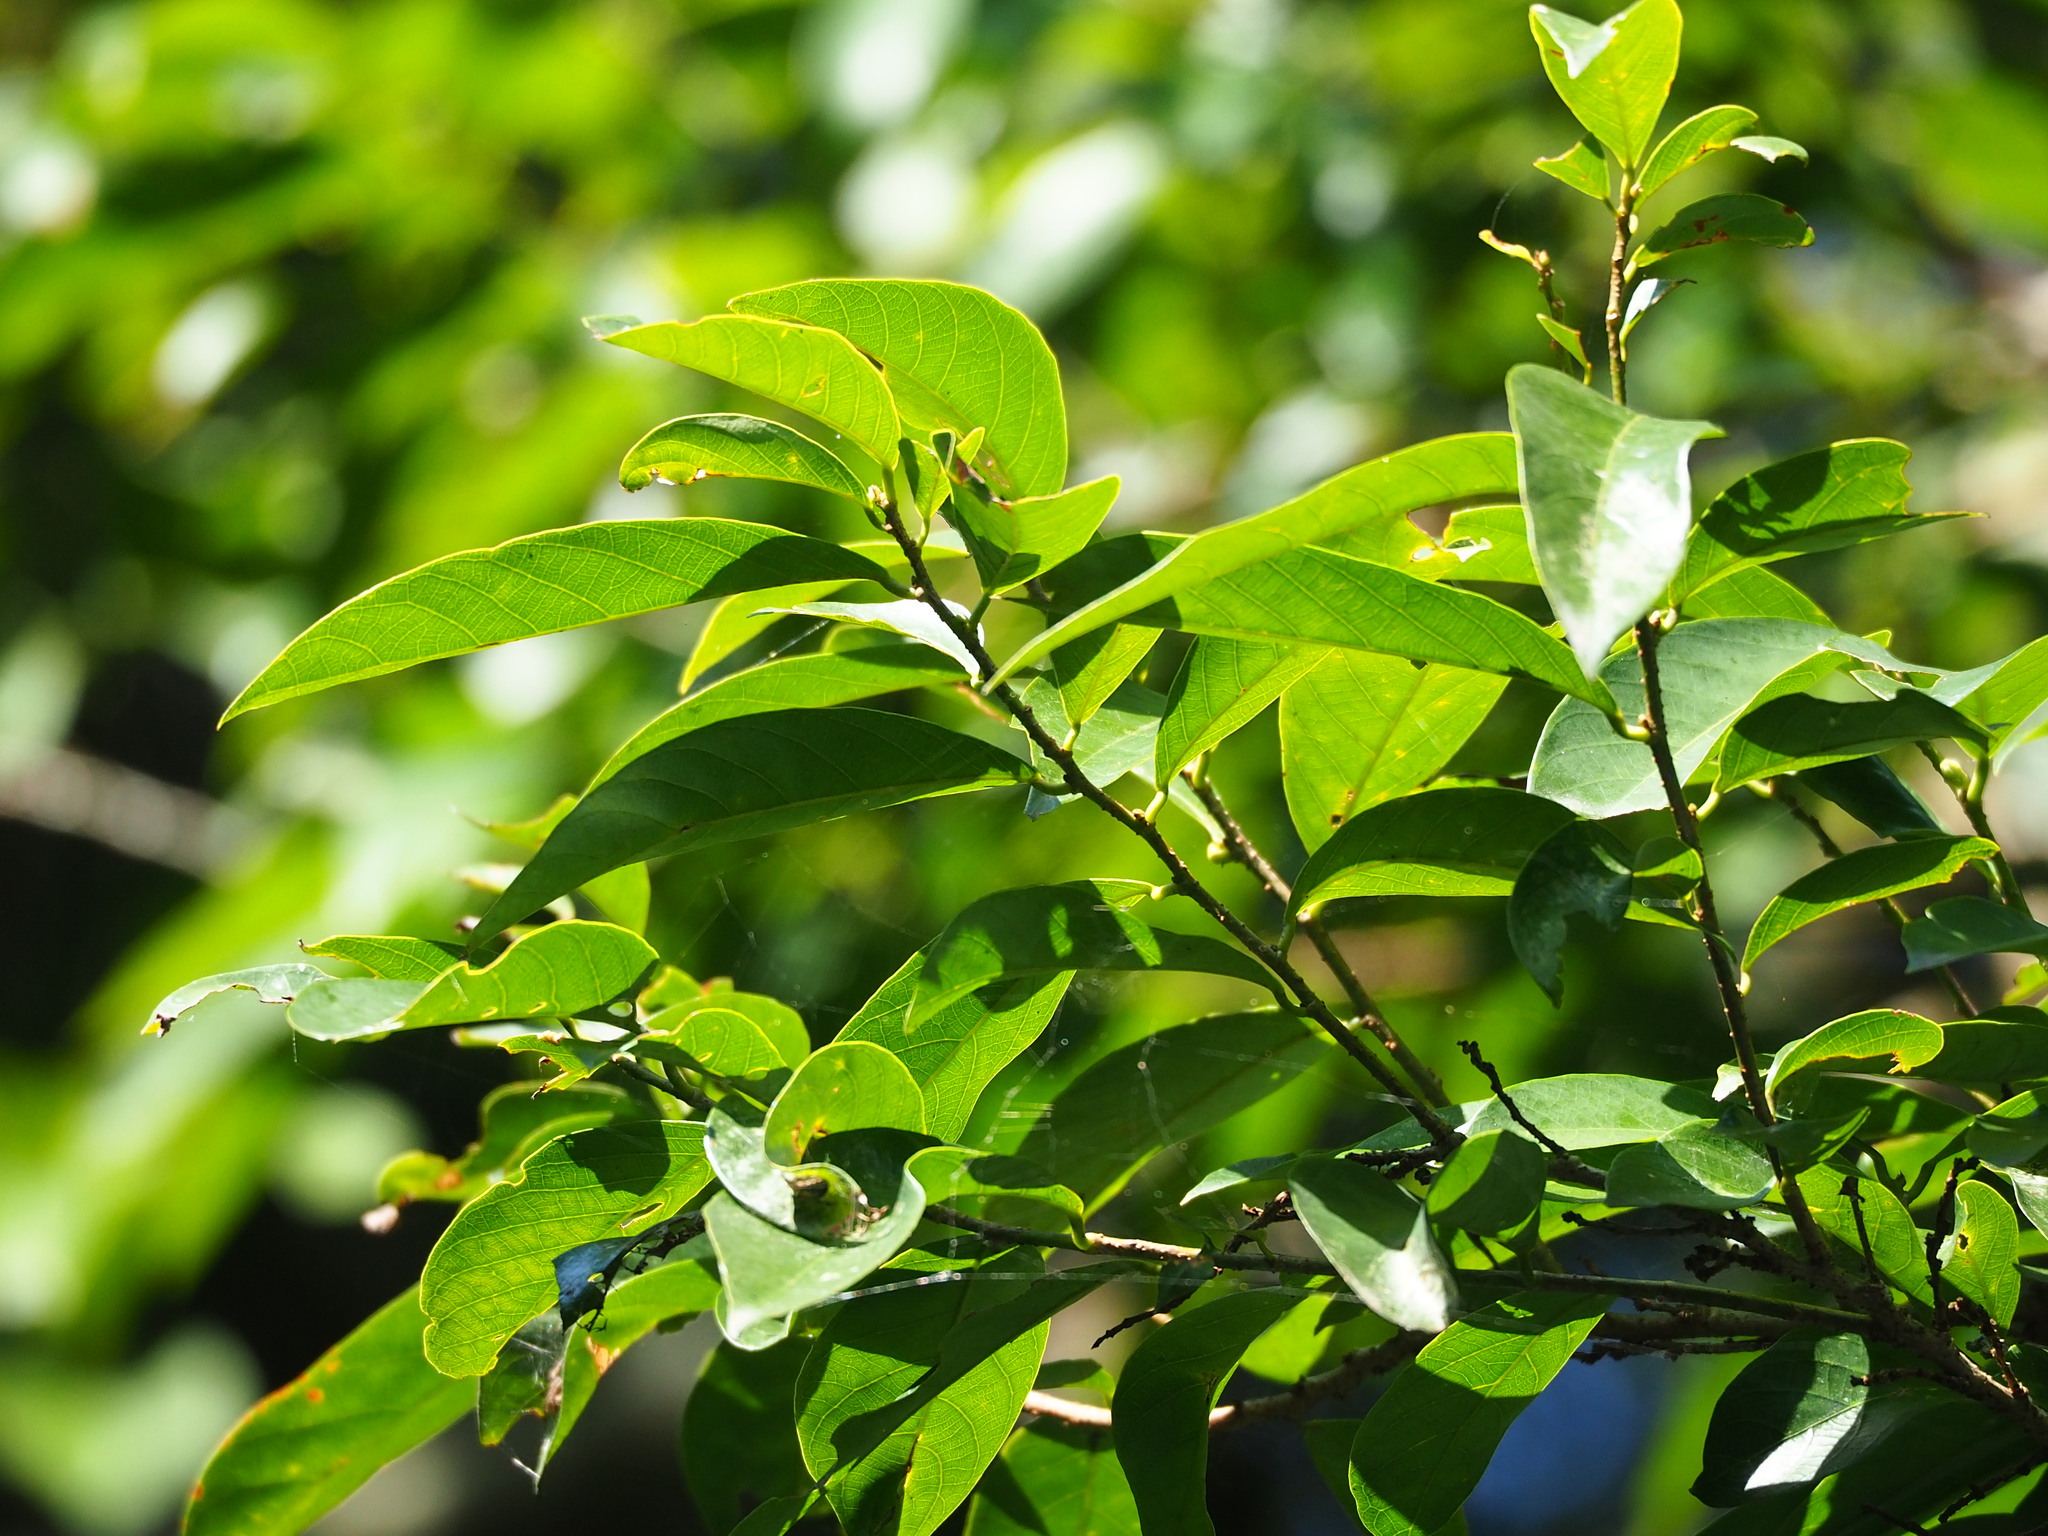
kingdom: Plantae
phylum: Tracheophyta
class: Magnoliopsida
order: Malpighiales
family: Phyllanthaceae
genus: Bridelia
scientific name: Bridelia balansae
